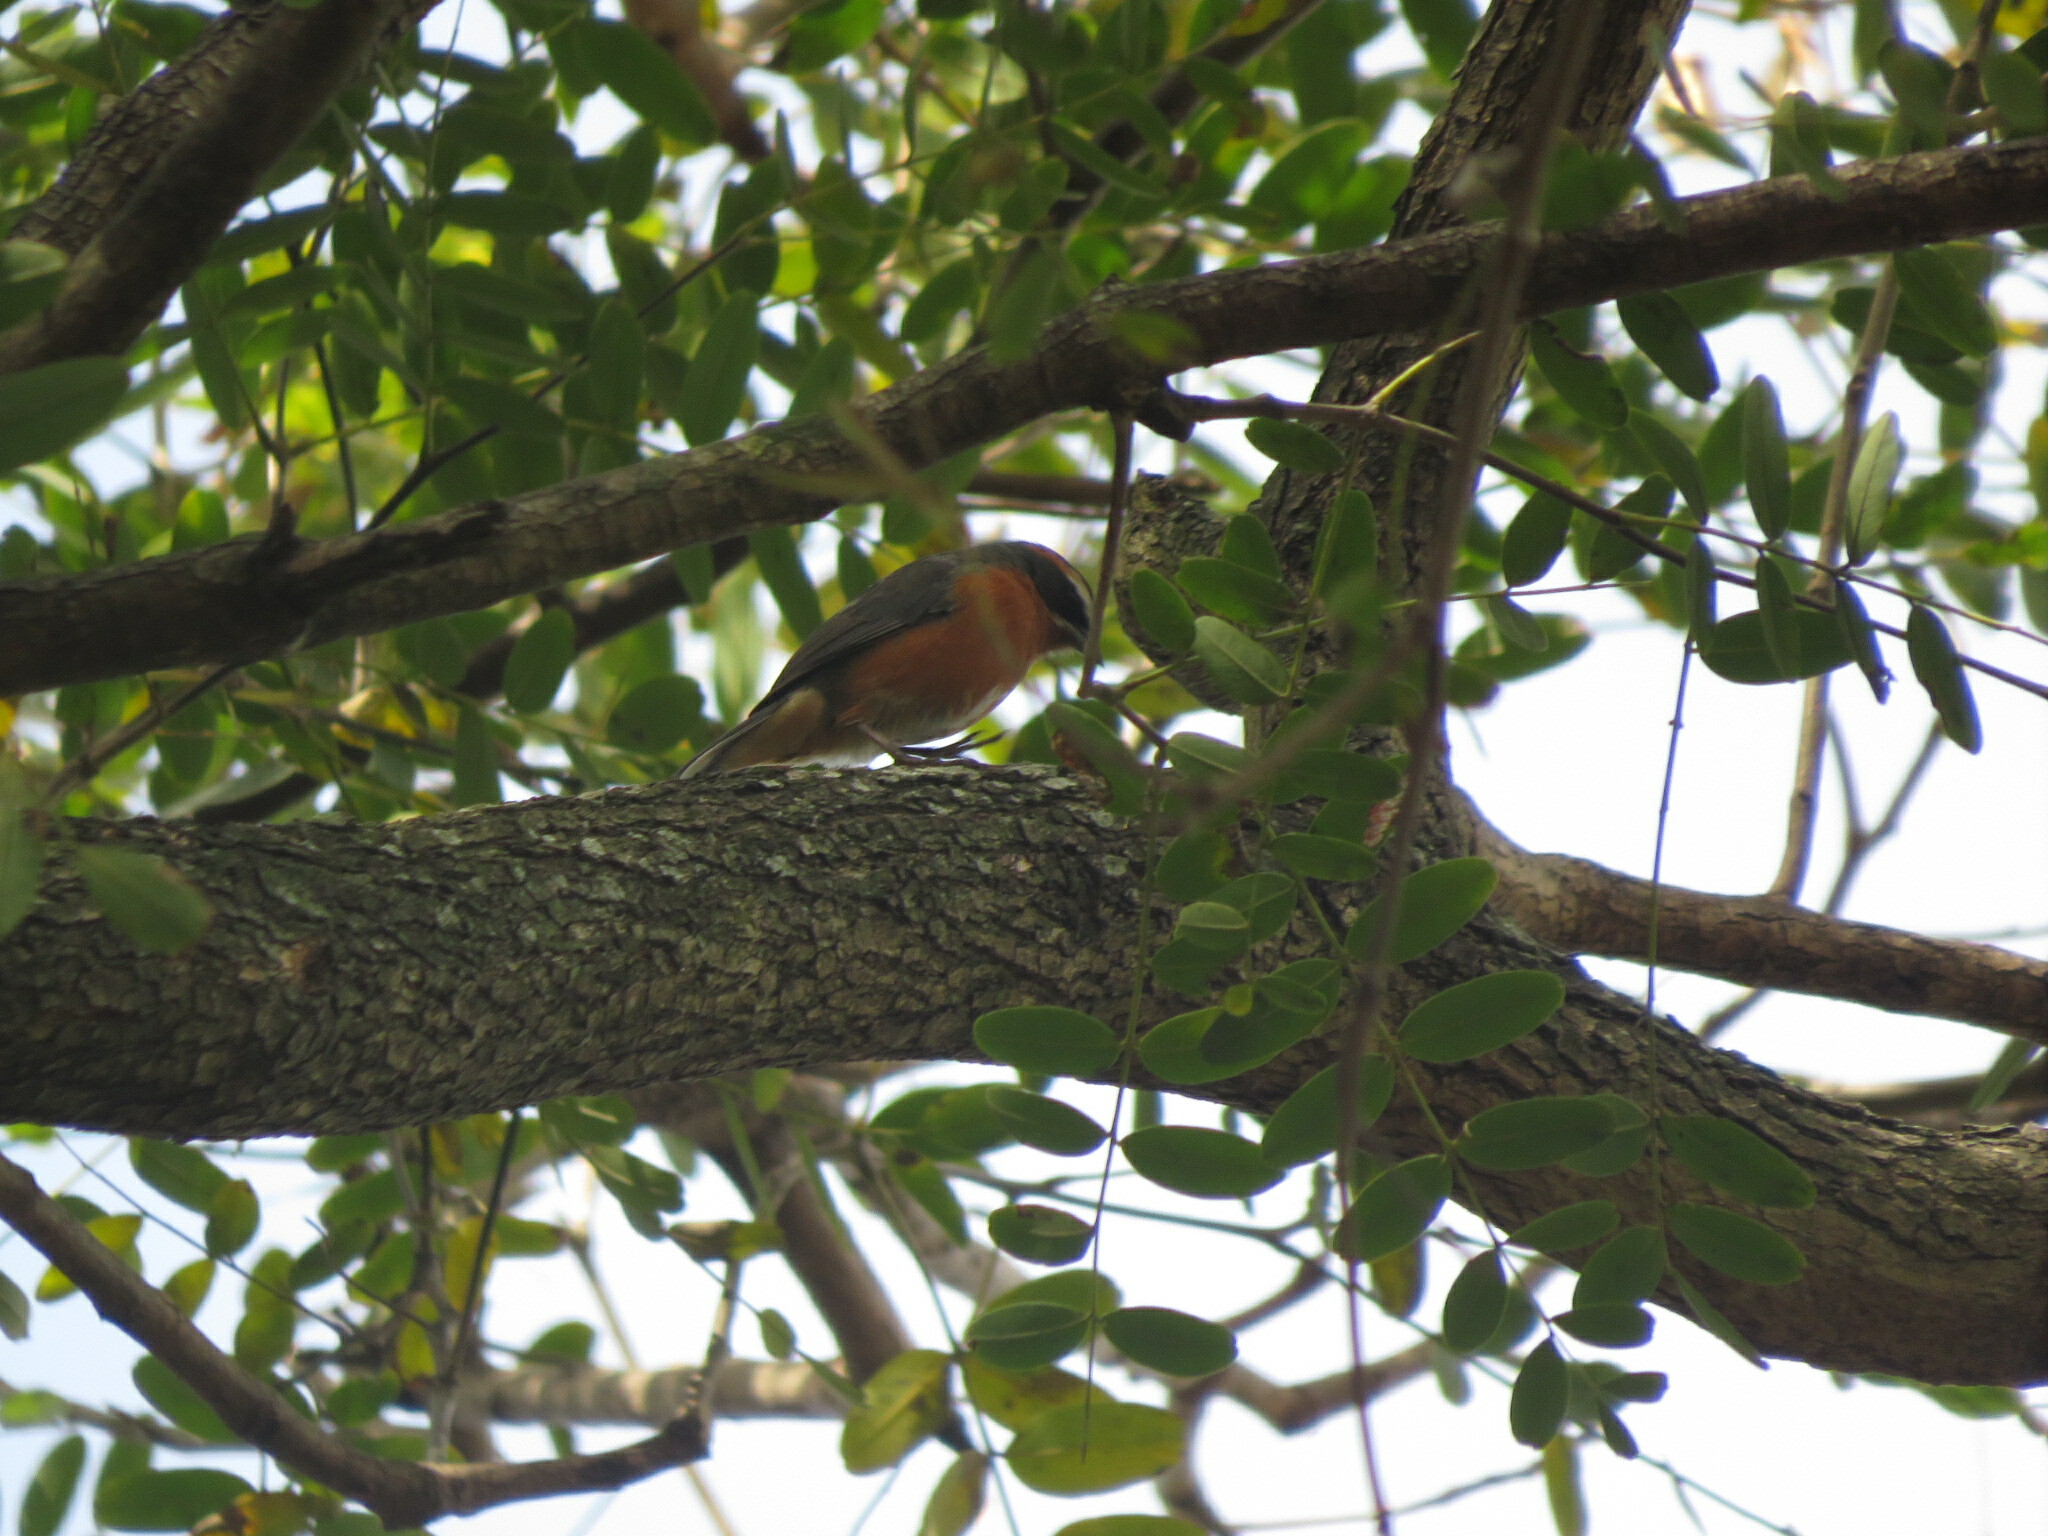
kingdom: Animalia
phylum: Chordata
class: Aves
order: Passeriformes
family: Thraupidae
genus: Poospiza
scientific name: Poospiza nigrorufa
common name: Black-and-rufous warbling finch
